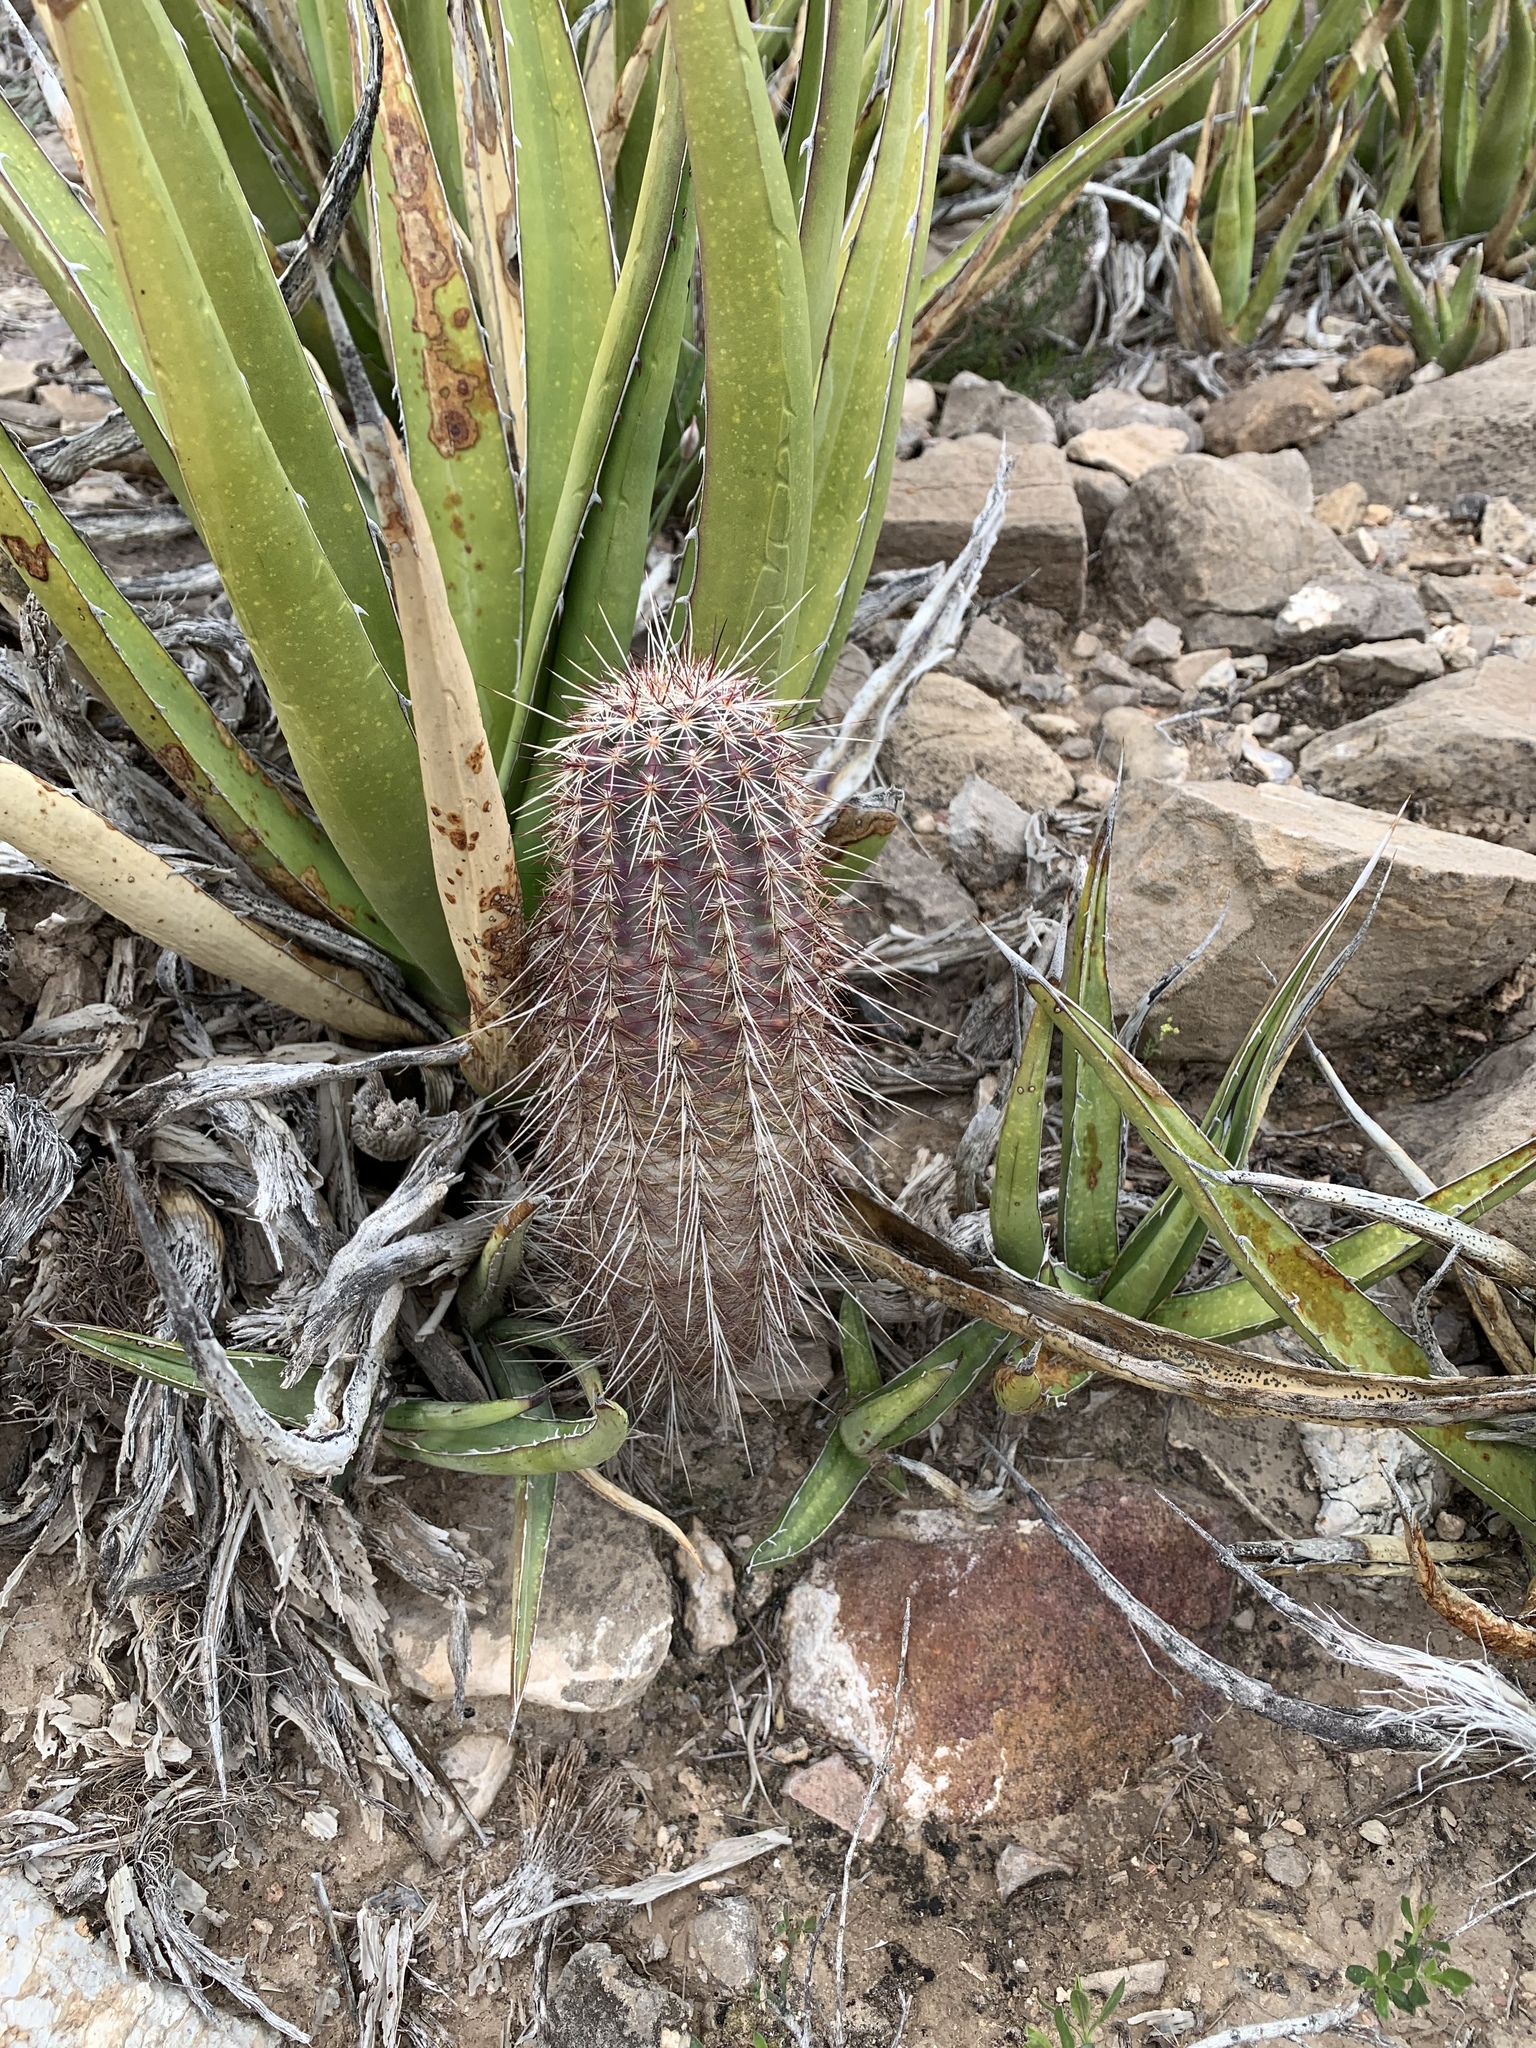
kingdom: Plantae
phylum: Tracheophyta
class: Magnoliopsida
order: Caryophyllales
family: Cactaceae
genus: Echinocereus
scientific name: Echinocereus viridiflorus
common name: Nylon hedgehog cactus
